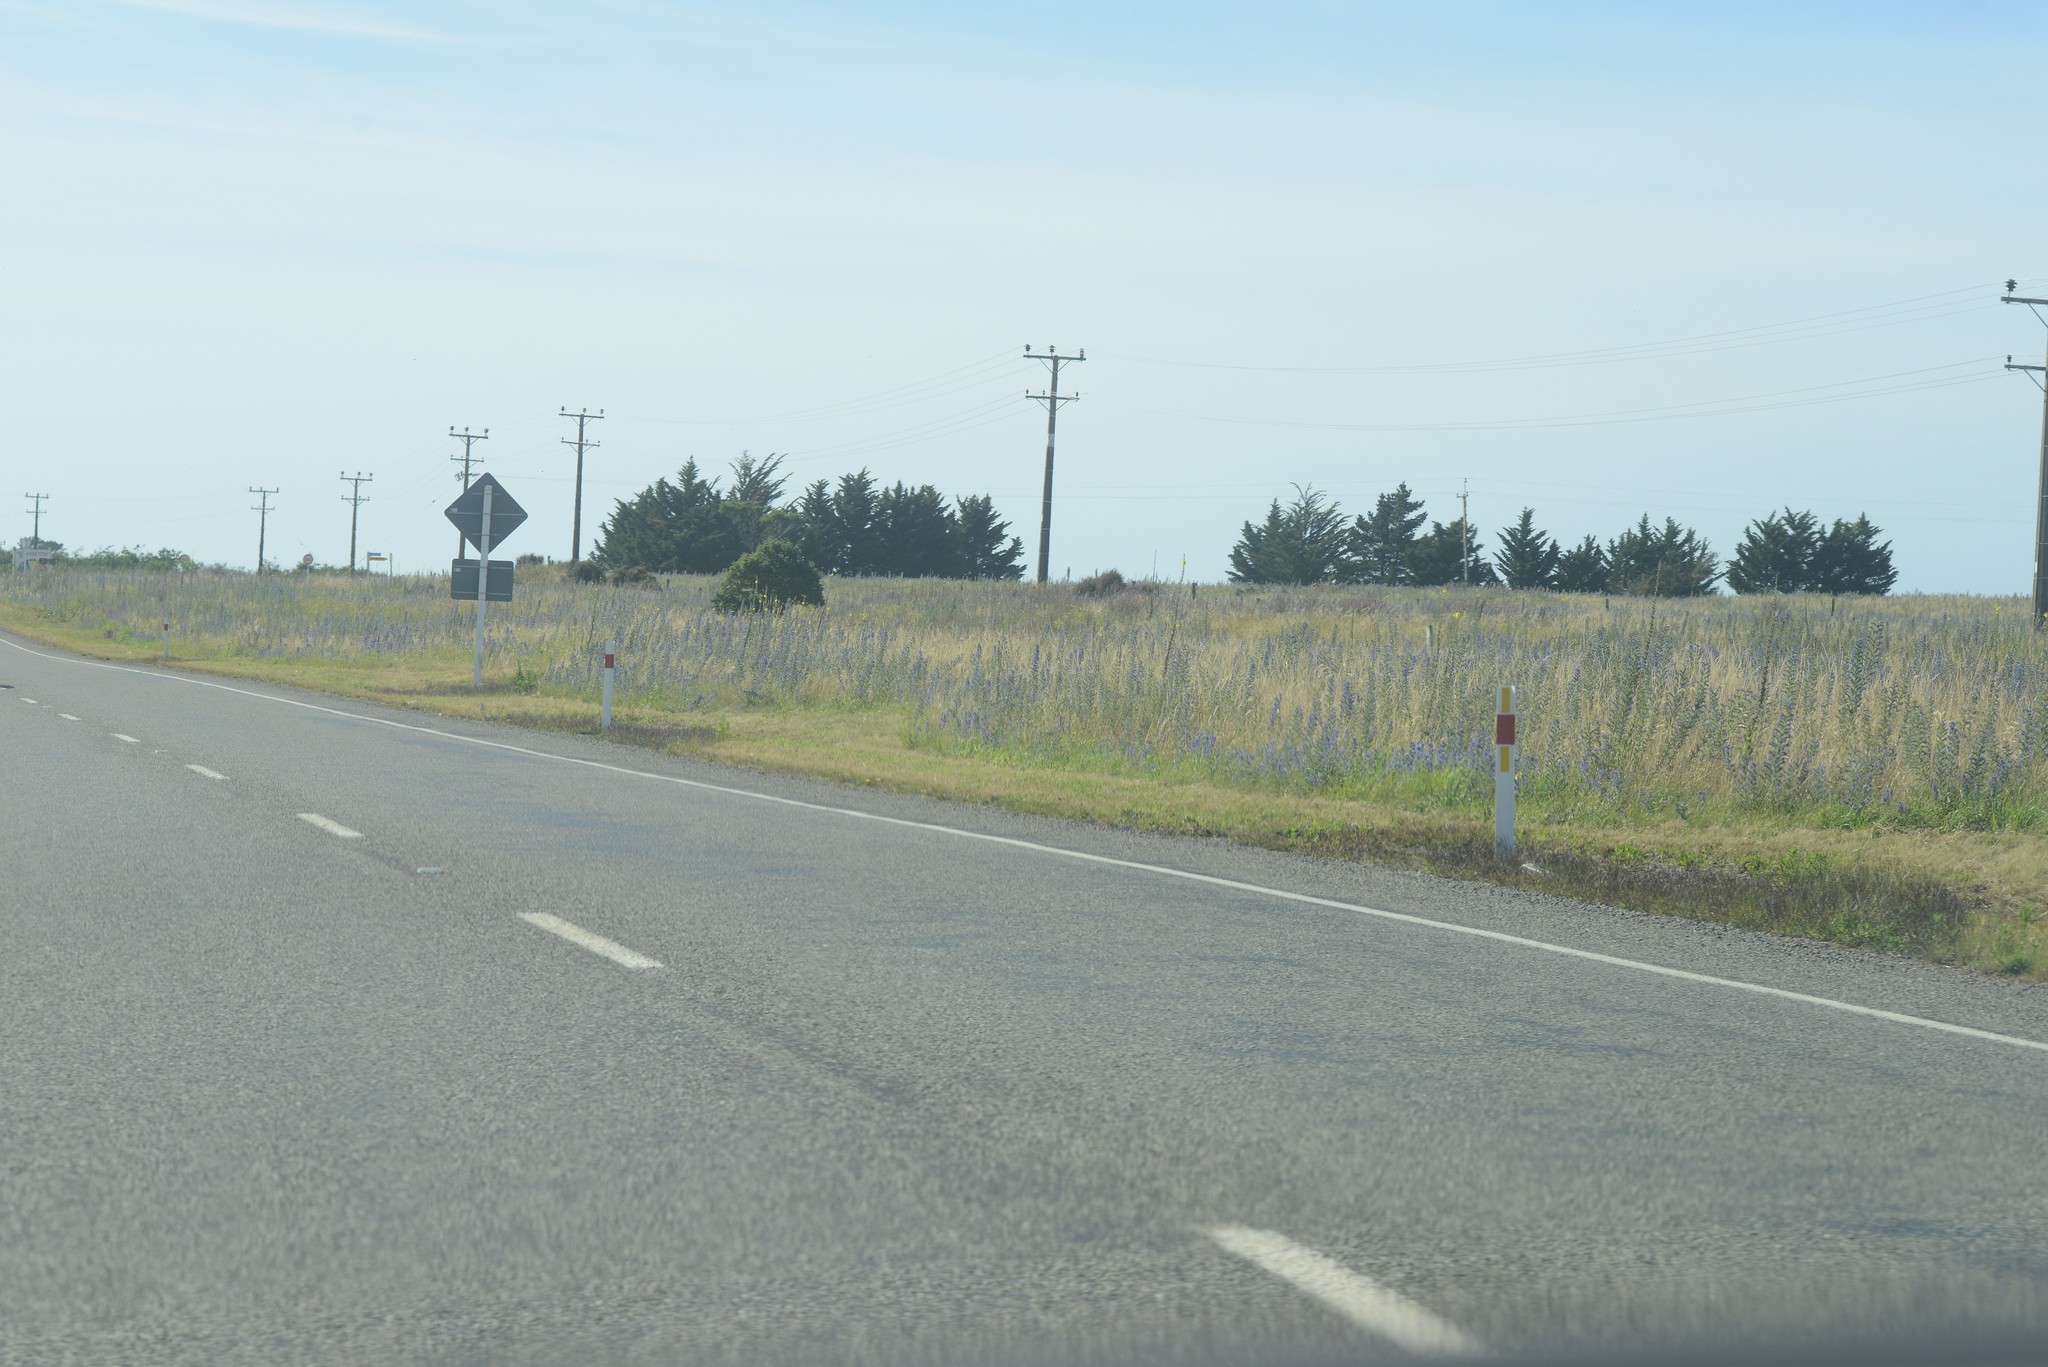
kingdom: Plantae
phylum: Tracheophyta
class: Magnoliopsida
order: Boraginales
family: Boraginaceae
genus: Echium
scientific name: Echium vulgare
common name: Common viper's bugloss
